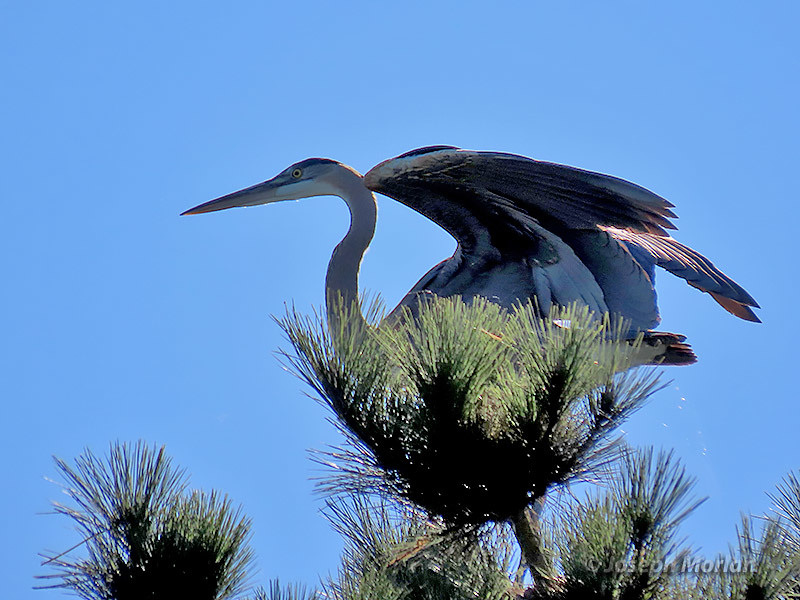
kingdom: Animalia
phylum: Chordata
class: Aves
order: Pelecaniformes
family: Ardeidae
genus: Ardea
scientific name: Ardea herodias
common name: Great blue heron
